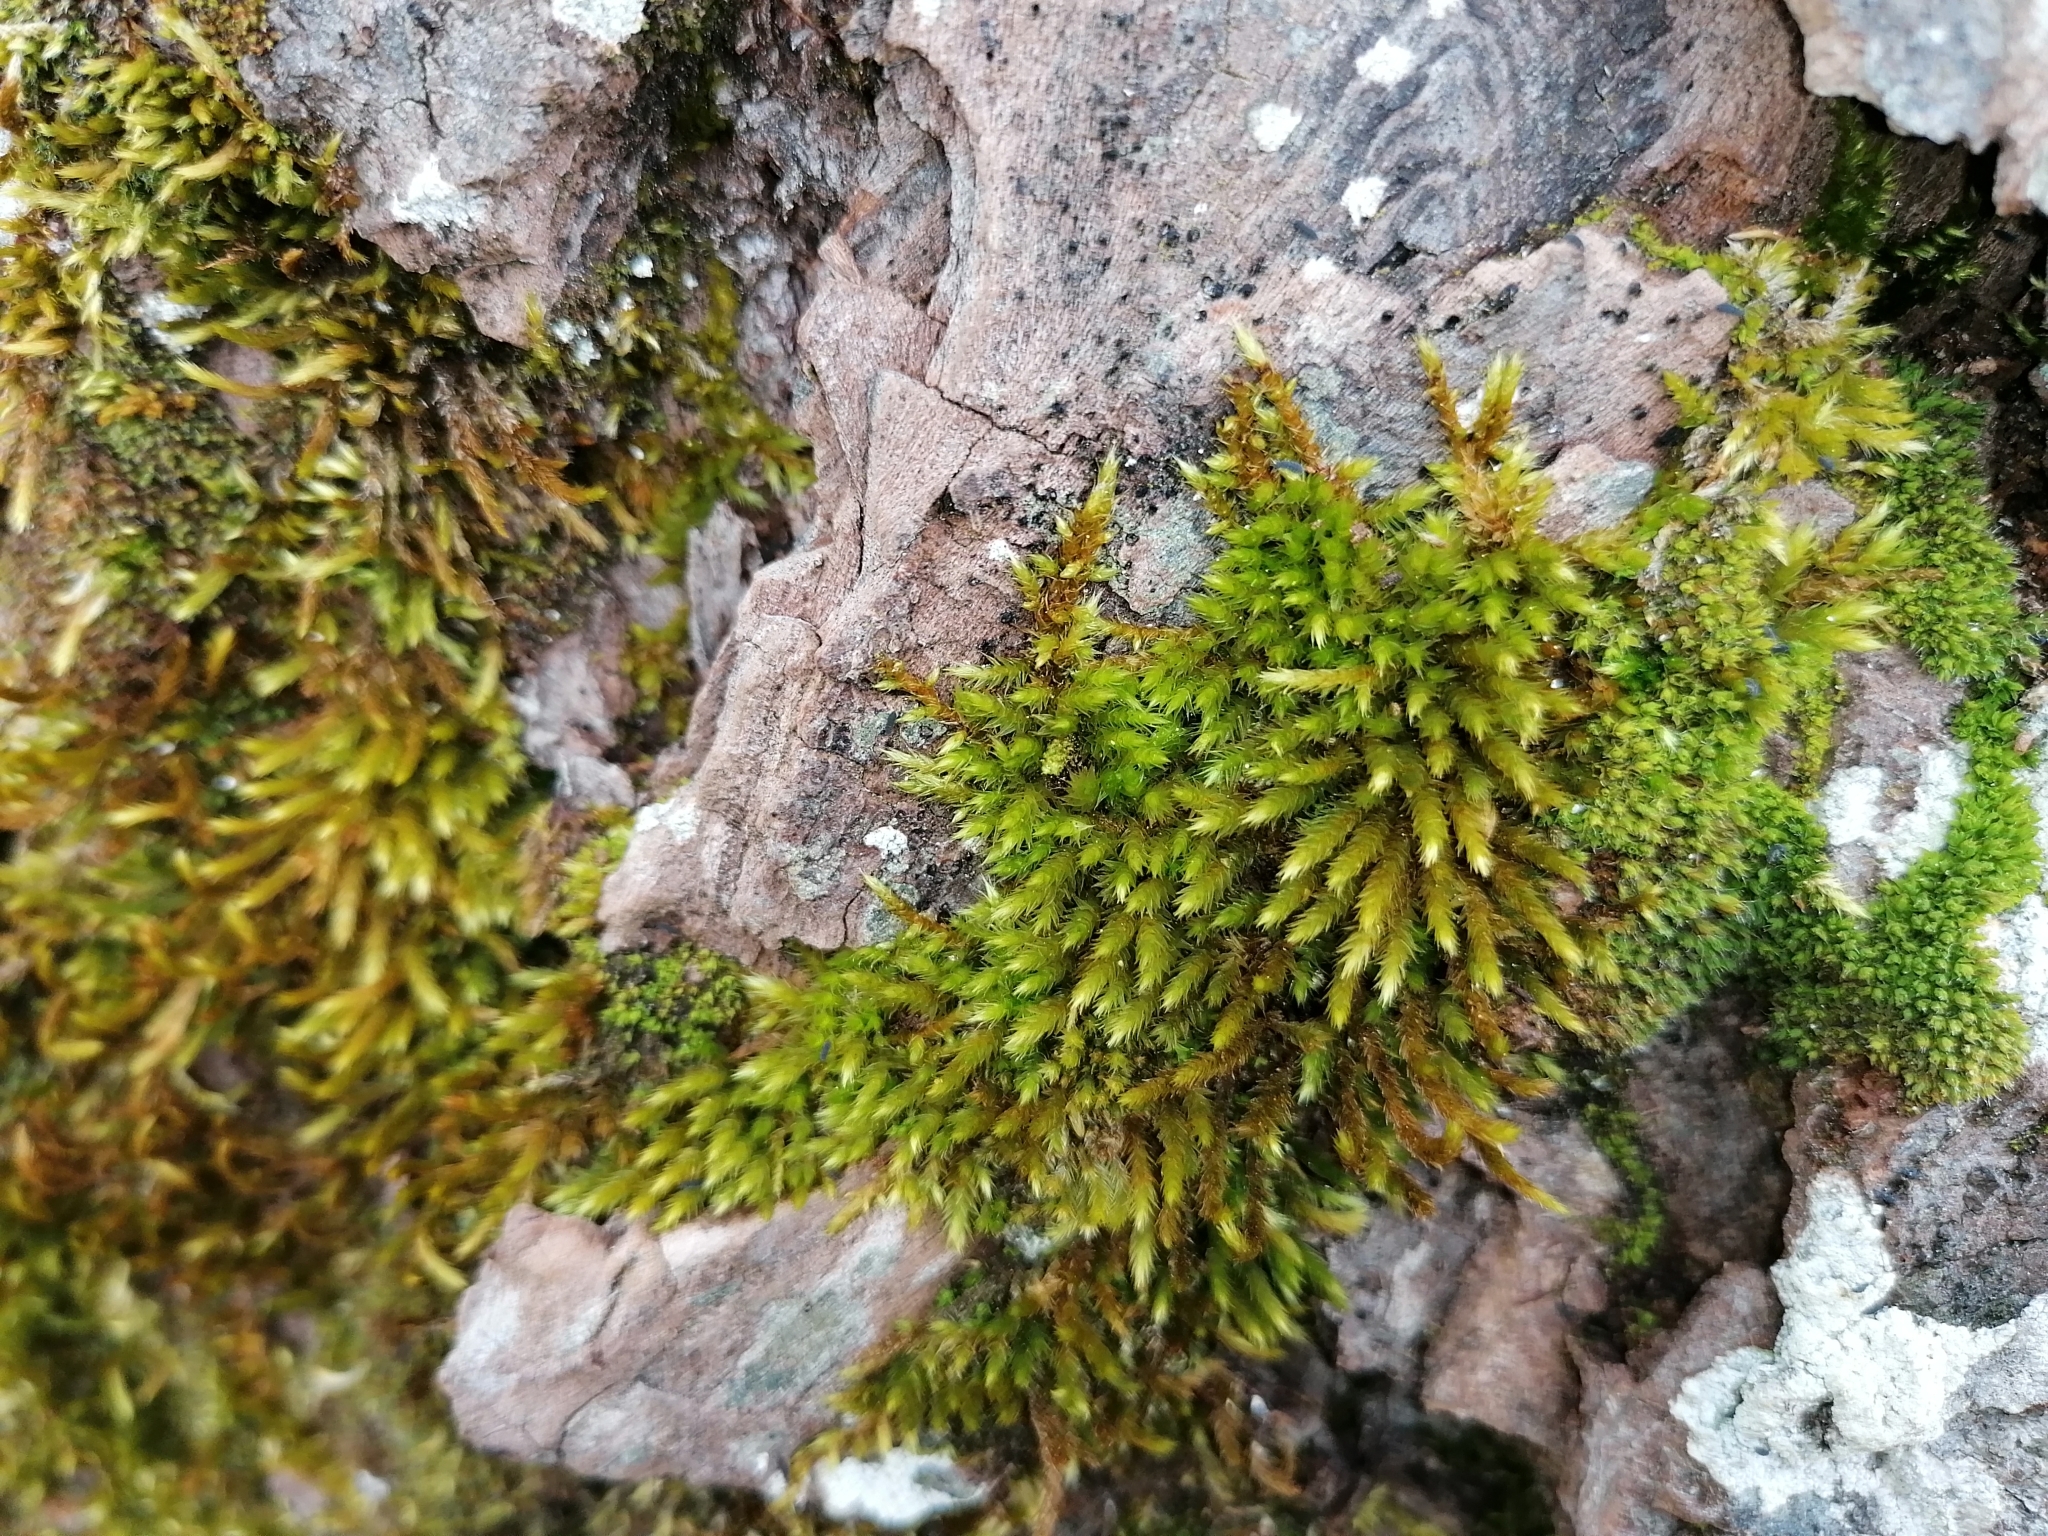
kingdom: Plantae
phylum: Bryophyta
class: Bryopsida
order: Hypnales
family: Leucodontaceae
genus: Leucodon
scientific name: Leucodon sciuroides
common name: Squirrel-tail moss
